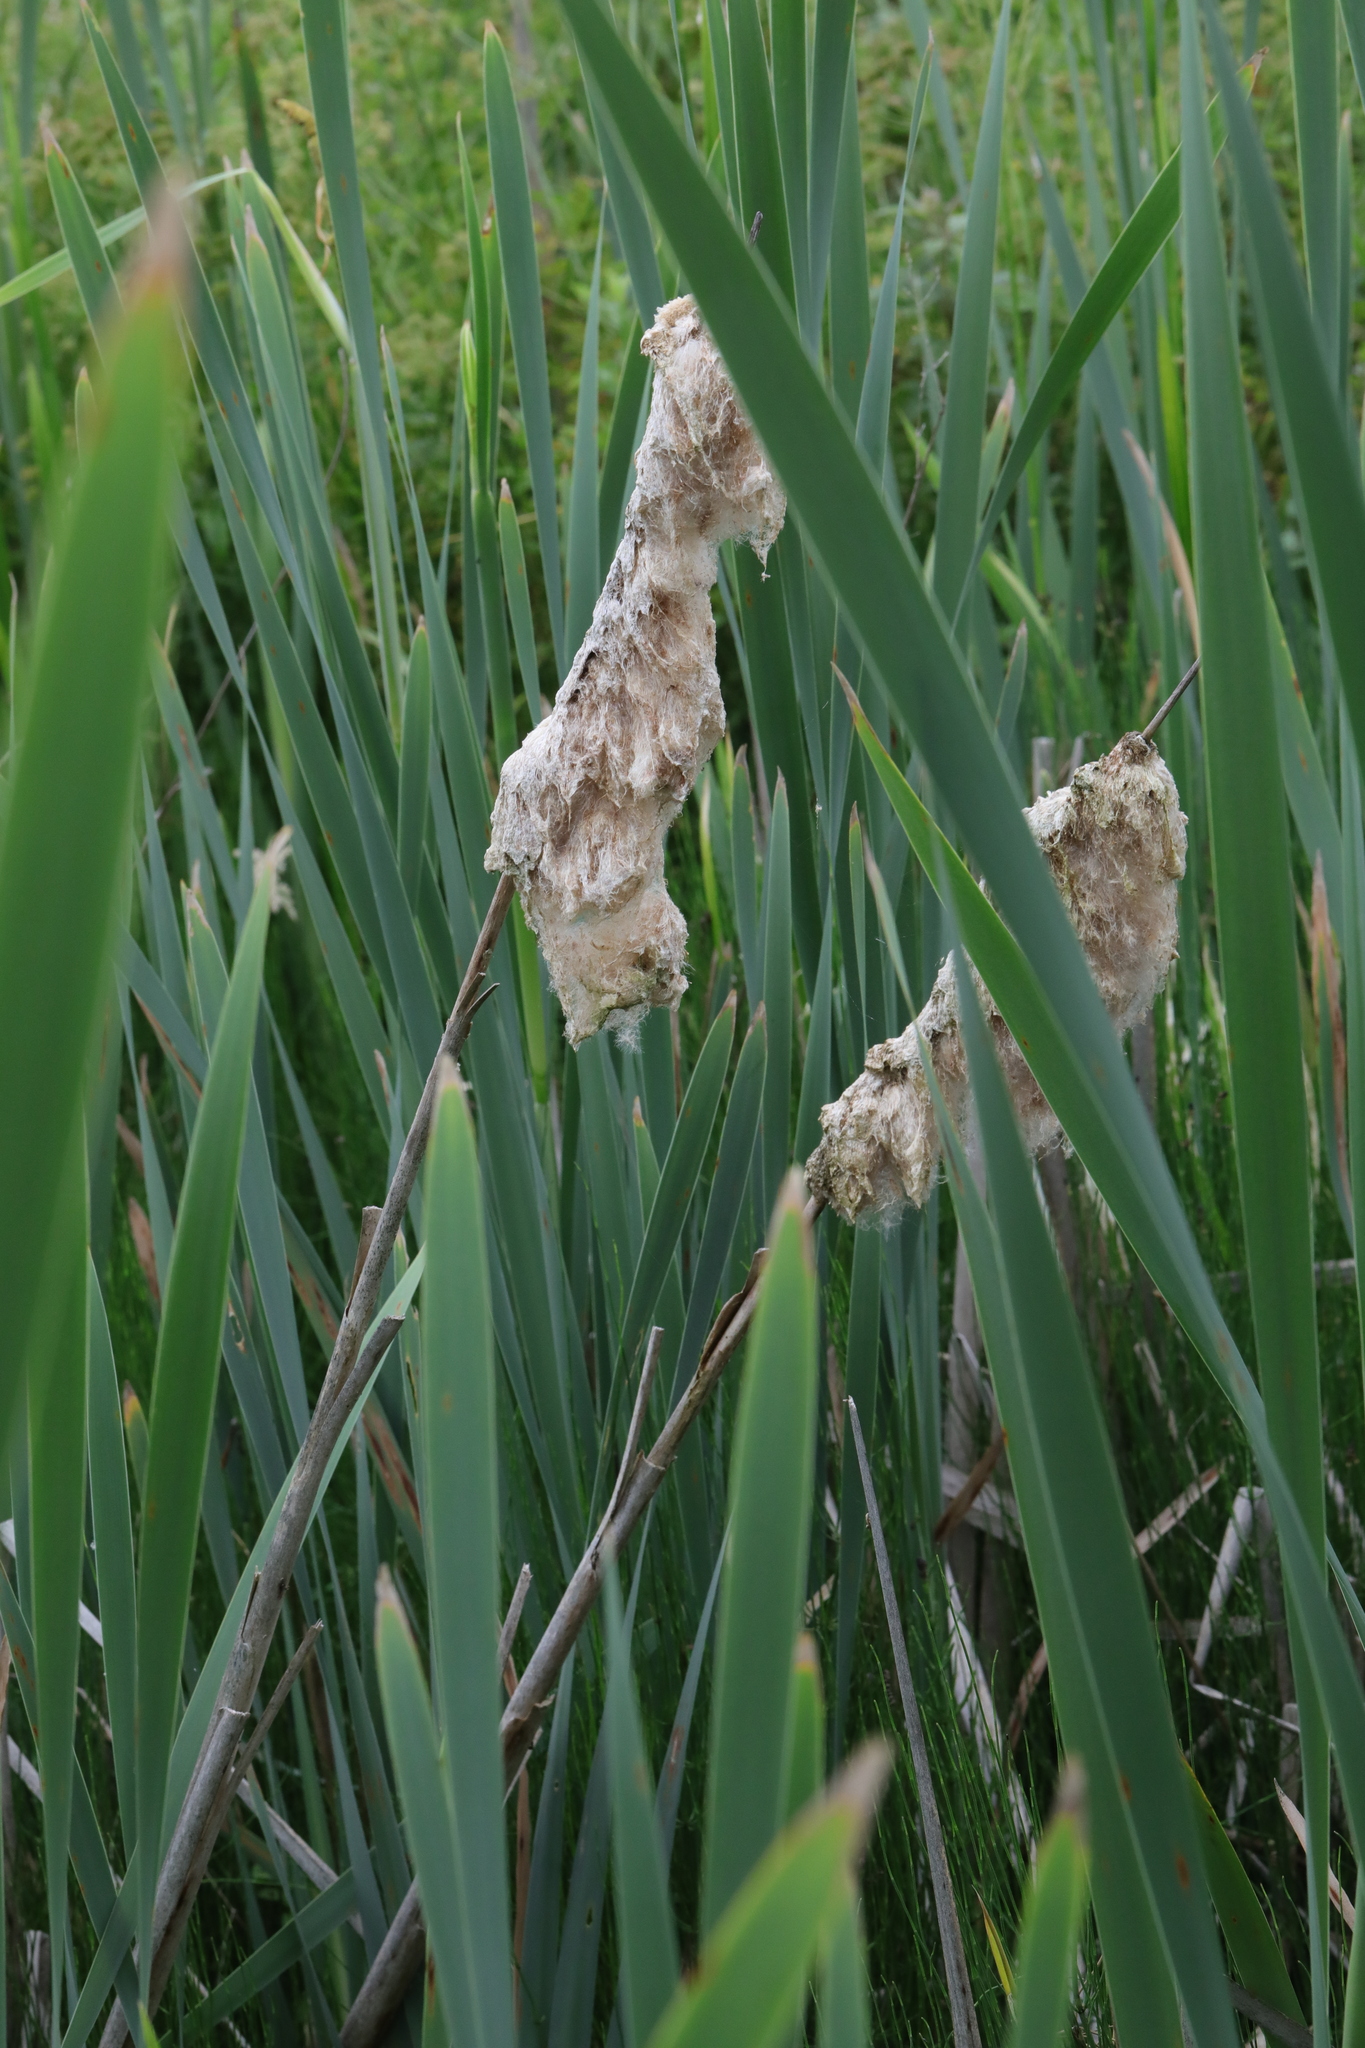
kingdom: Plantae
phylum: Tracheophyta
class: Liliopsida
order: Poales
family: Typhaceae
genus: Typha
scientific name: Typha latifolia
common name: Broadleaf cattail
